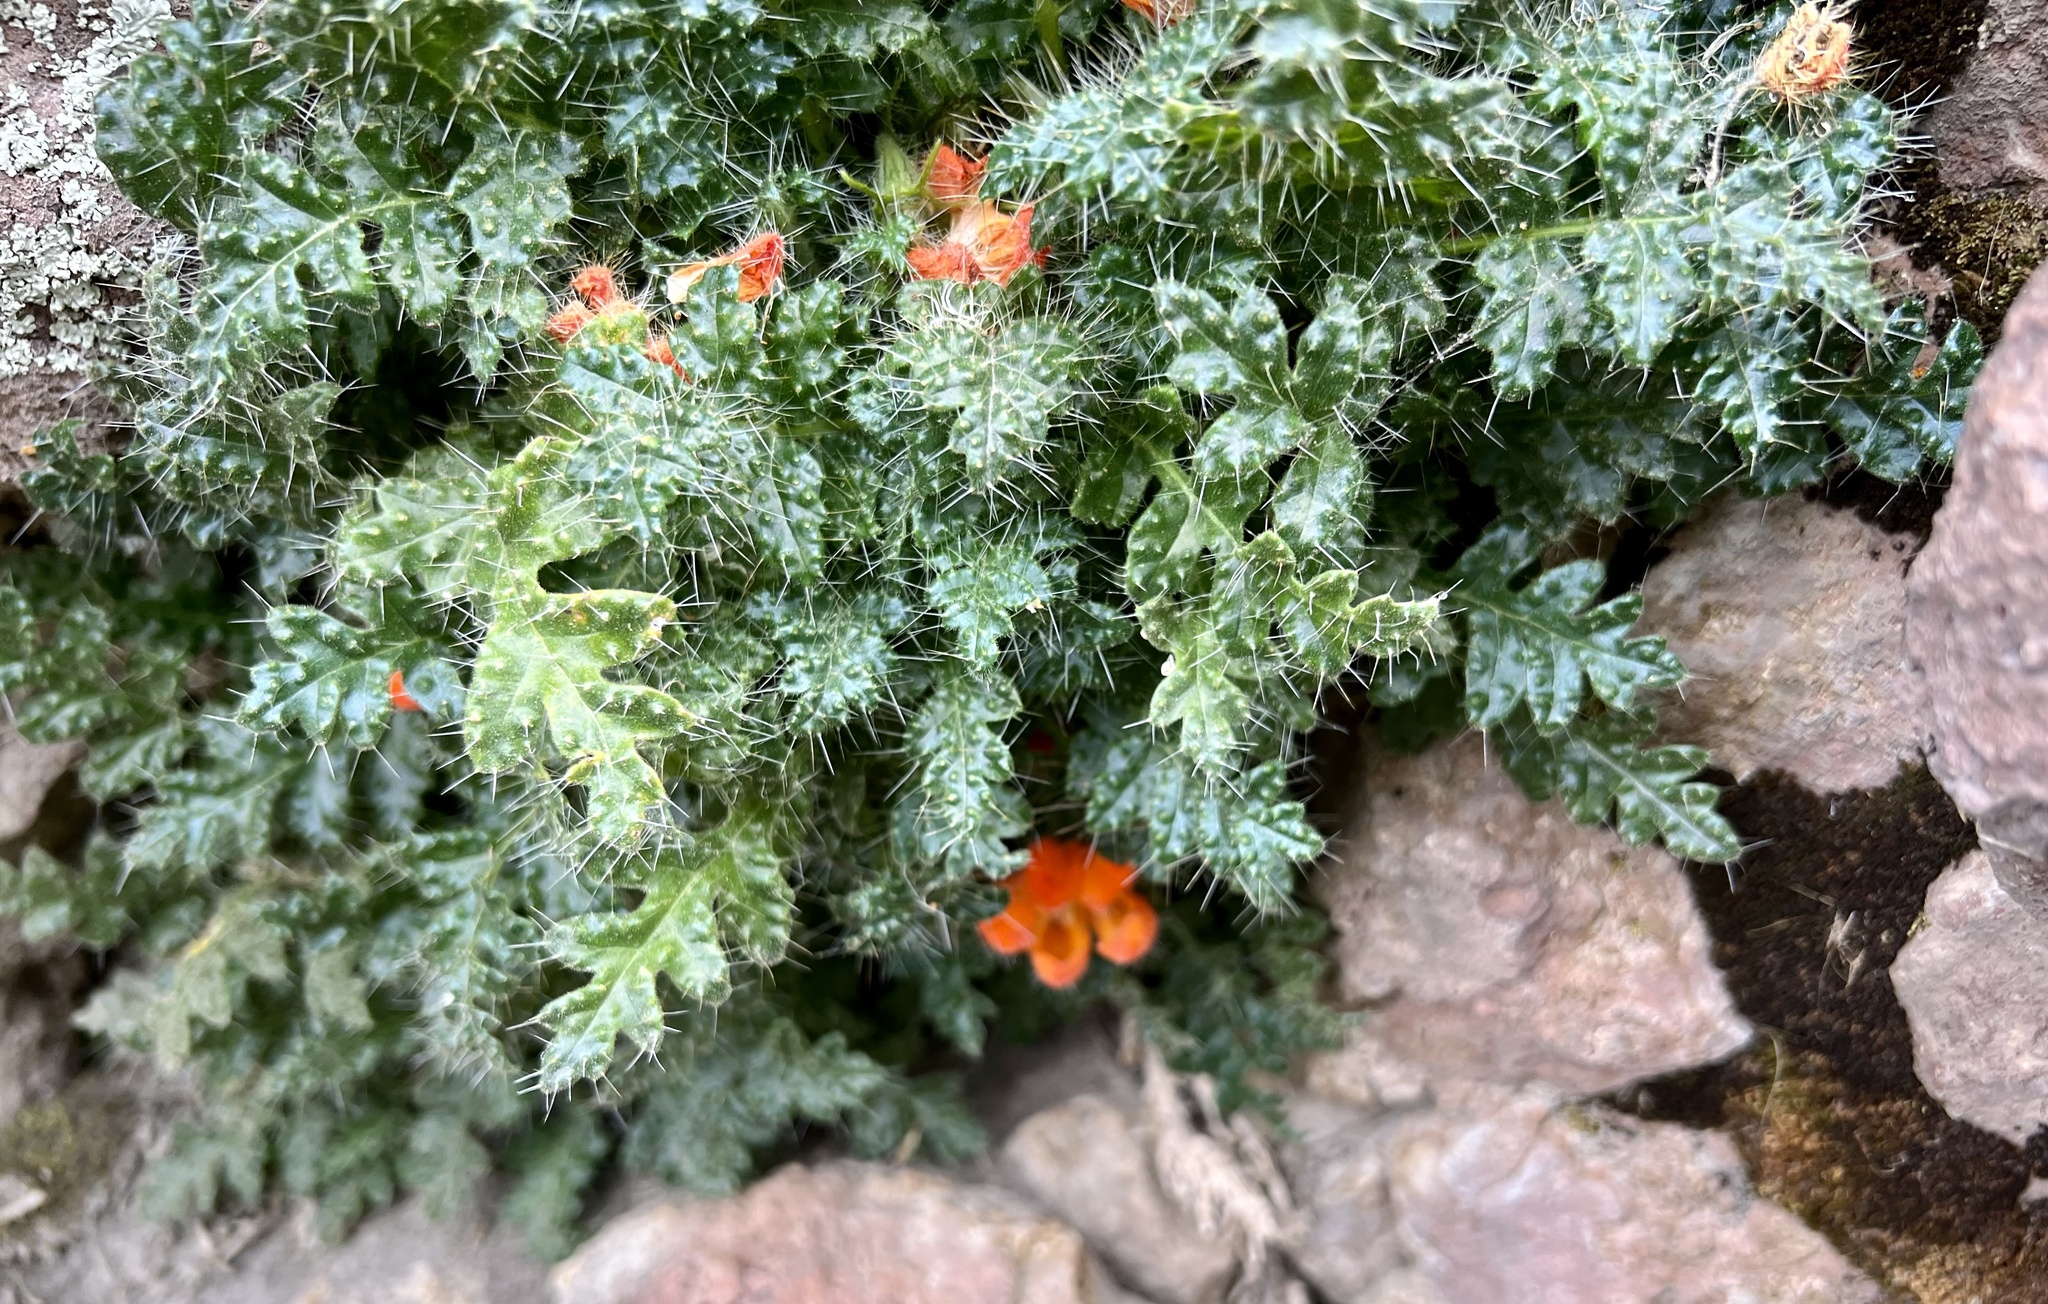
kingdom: Plantae
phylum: Tracheophyta
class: Magnoliopsida
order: Cornales
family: Loasaceae
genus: Caiophora
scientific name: Caiophora rosulata
